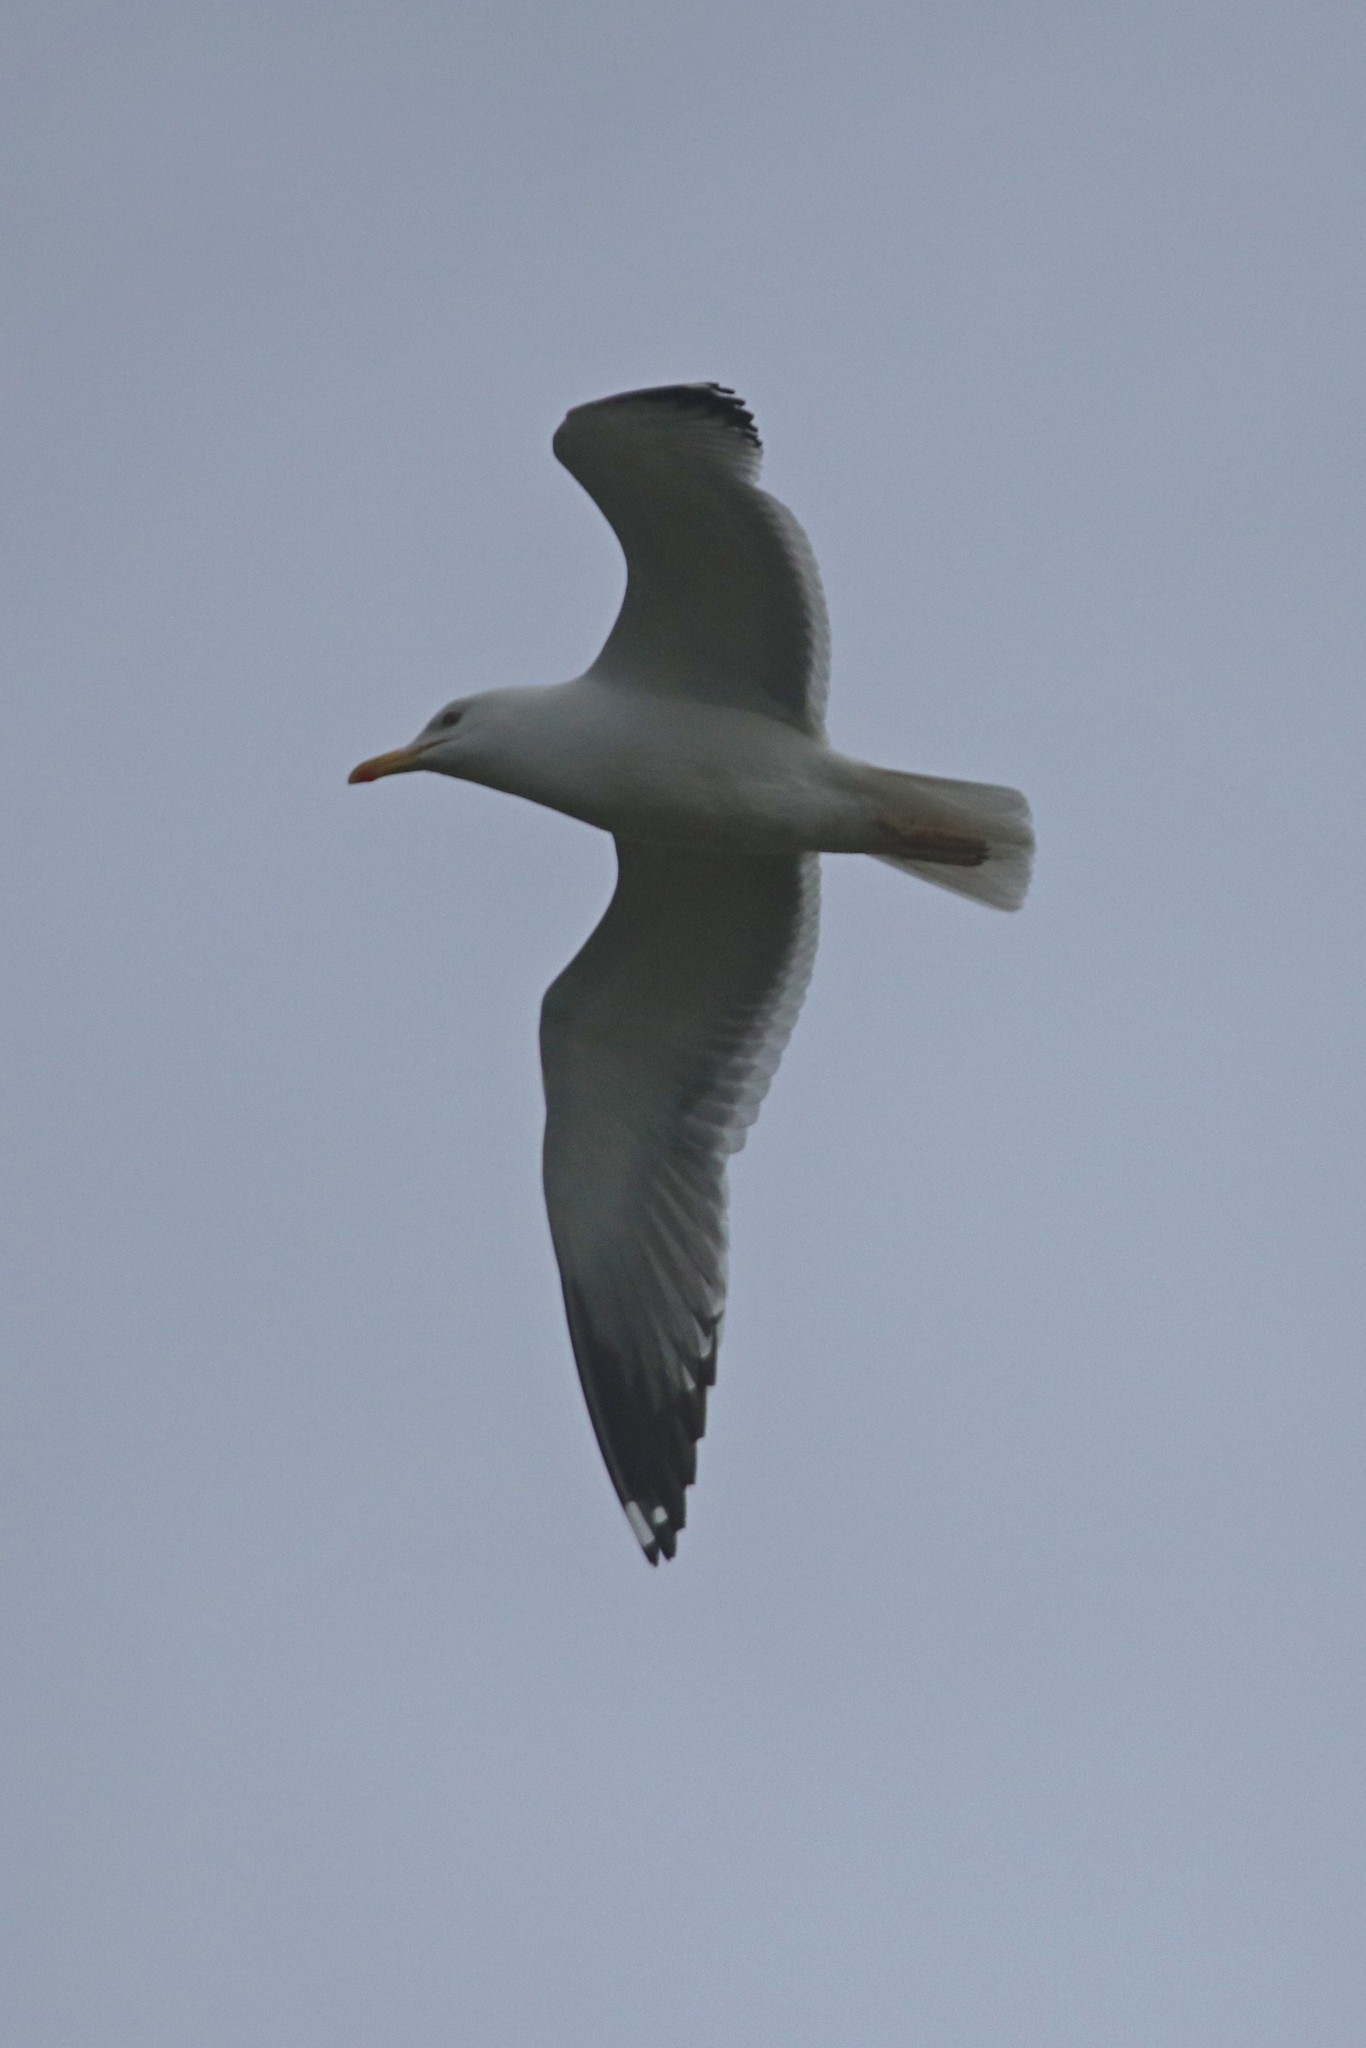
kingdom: Animalia
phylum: Chordata
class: Aves
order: Charadriiformes
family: Laridae
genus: Larus
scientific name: Larus cachinnans
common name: Caspian gull
